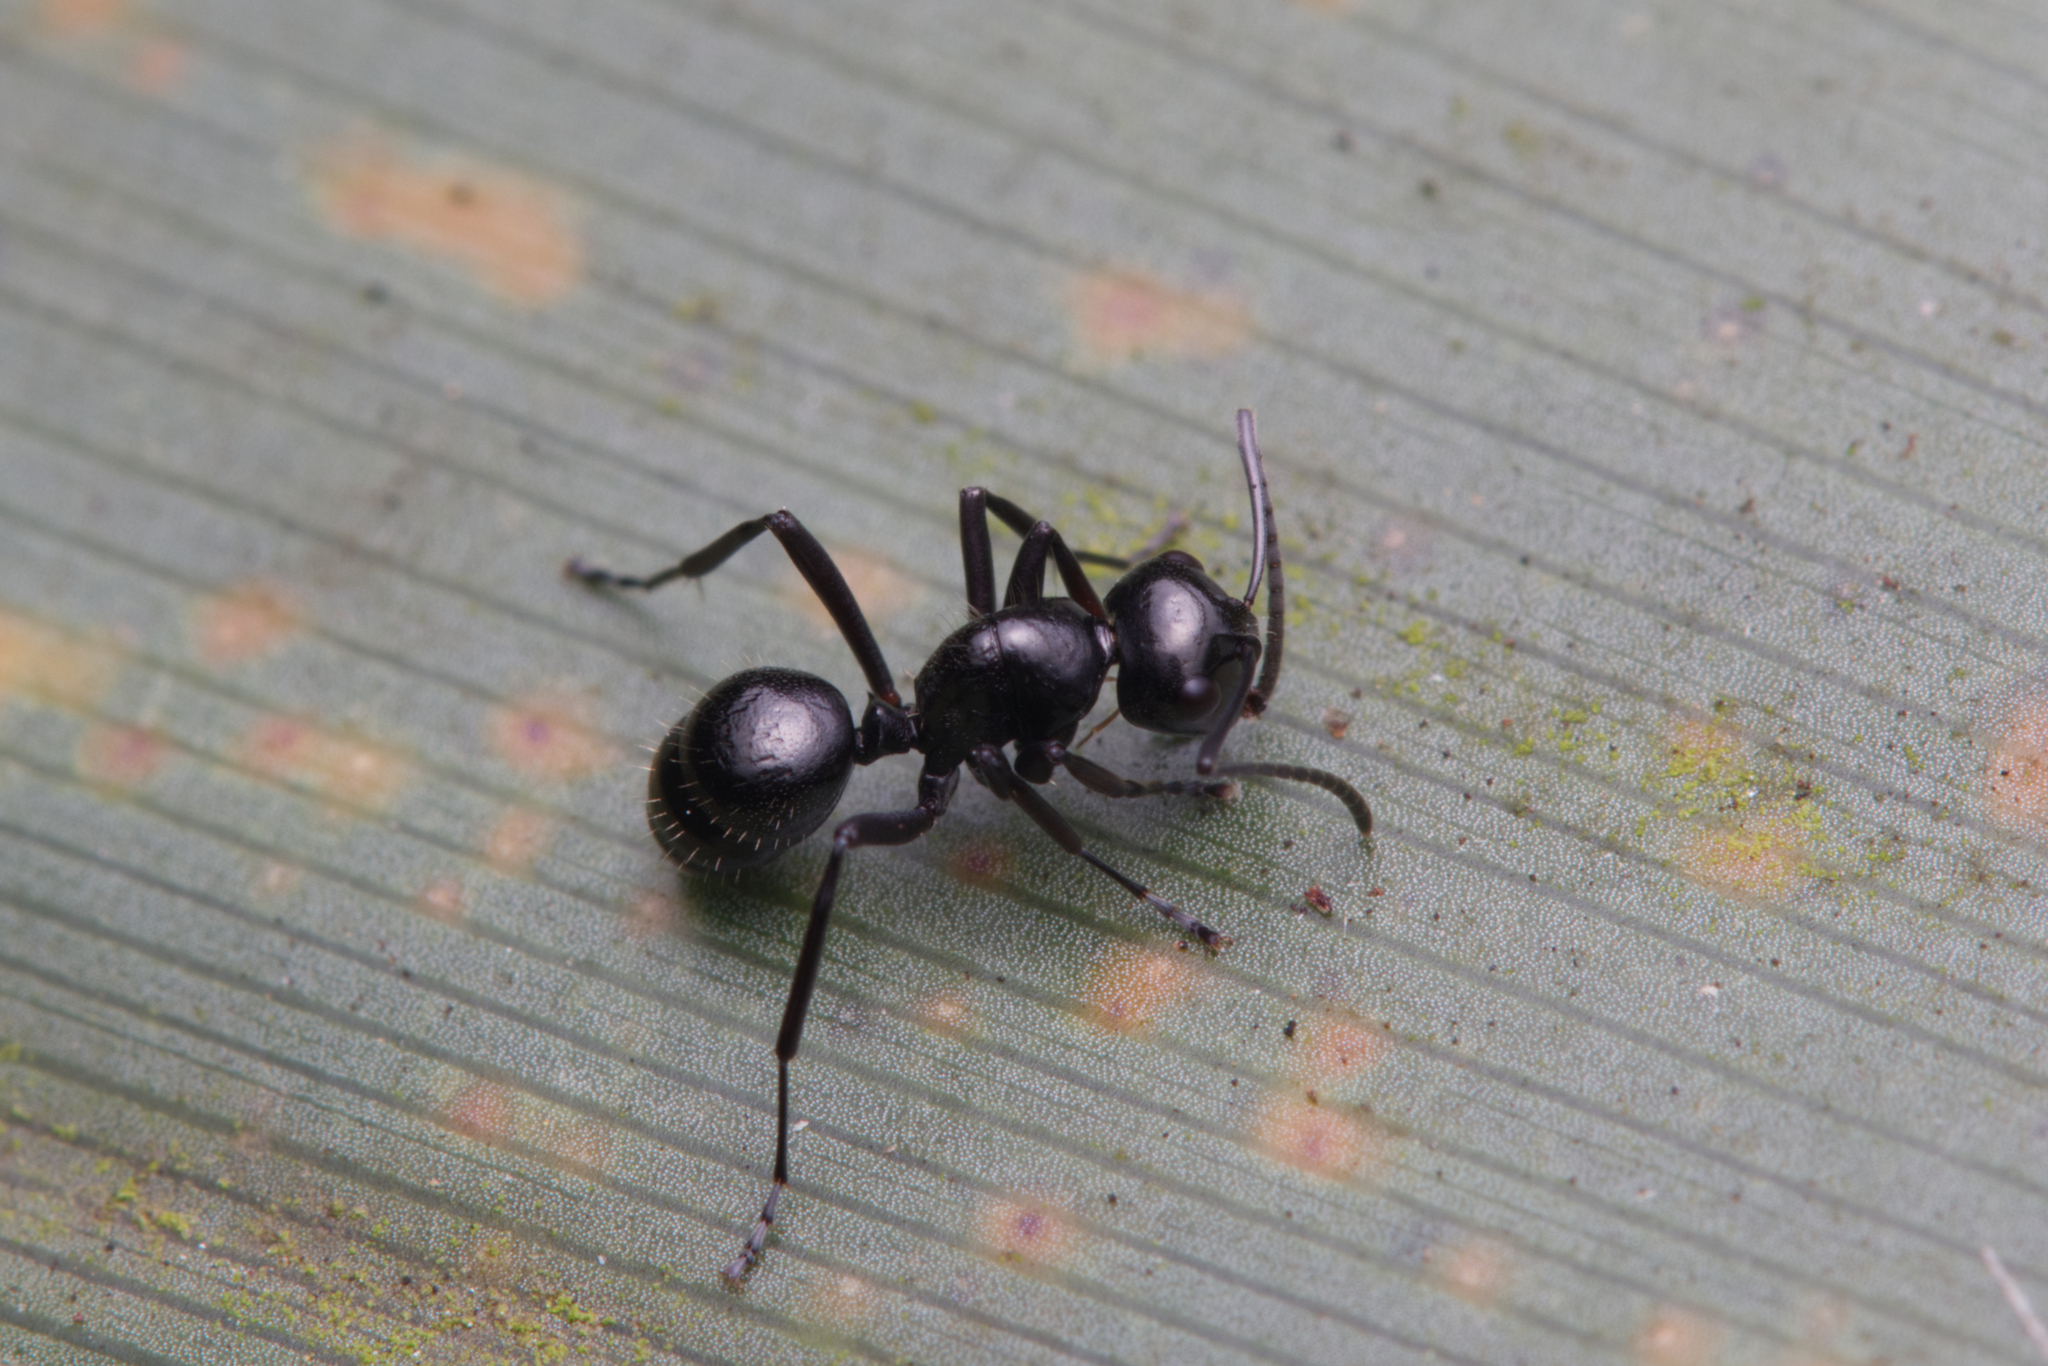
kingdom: Animalia
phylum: Arthropoda
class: Insecta
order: Hymenoptera
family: Formicidae
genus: Polyrhachis
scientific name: Polyrhachis pilosa
